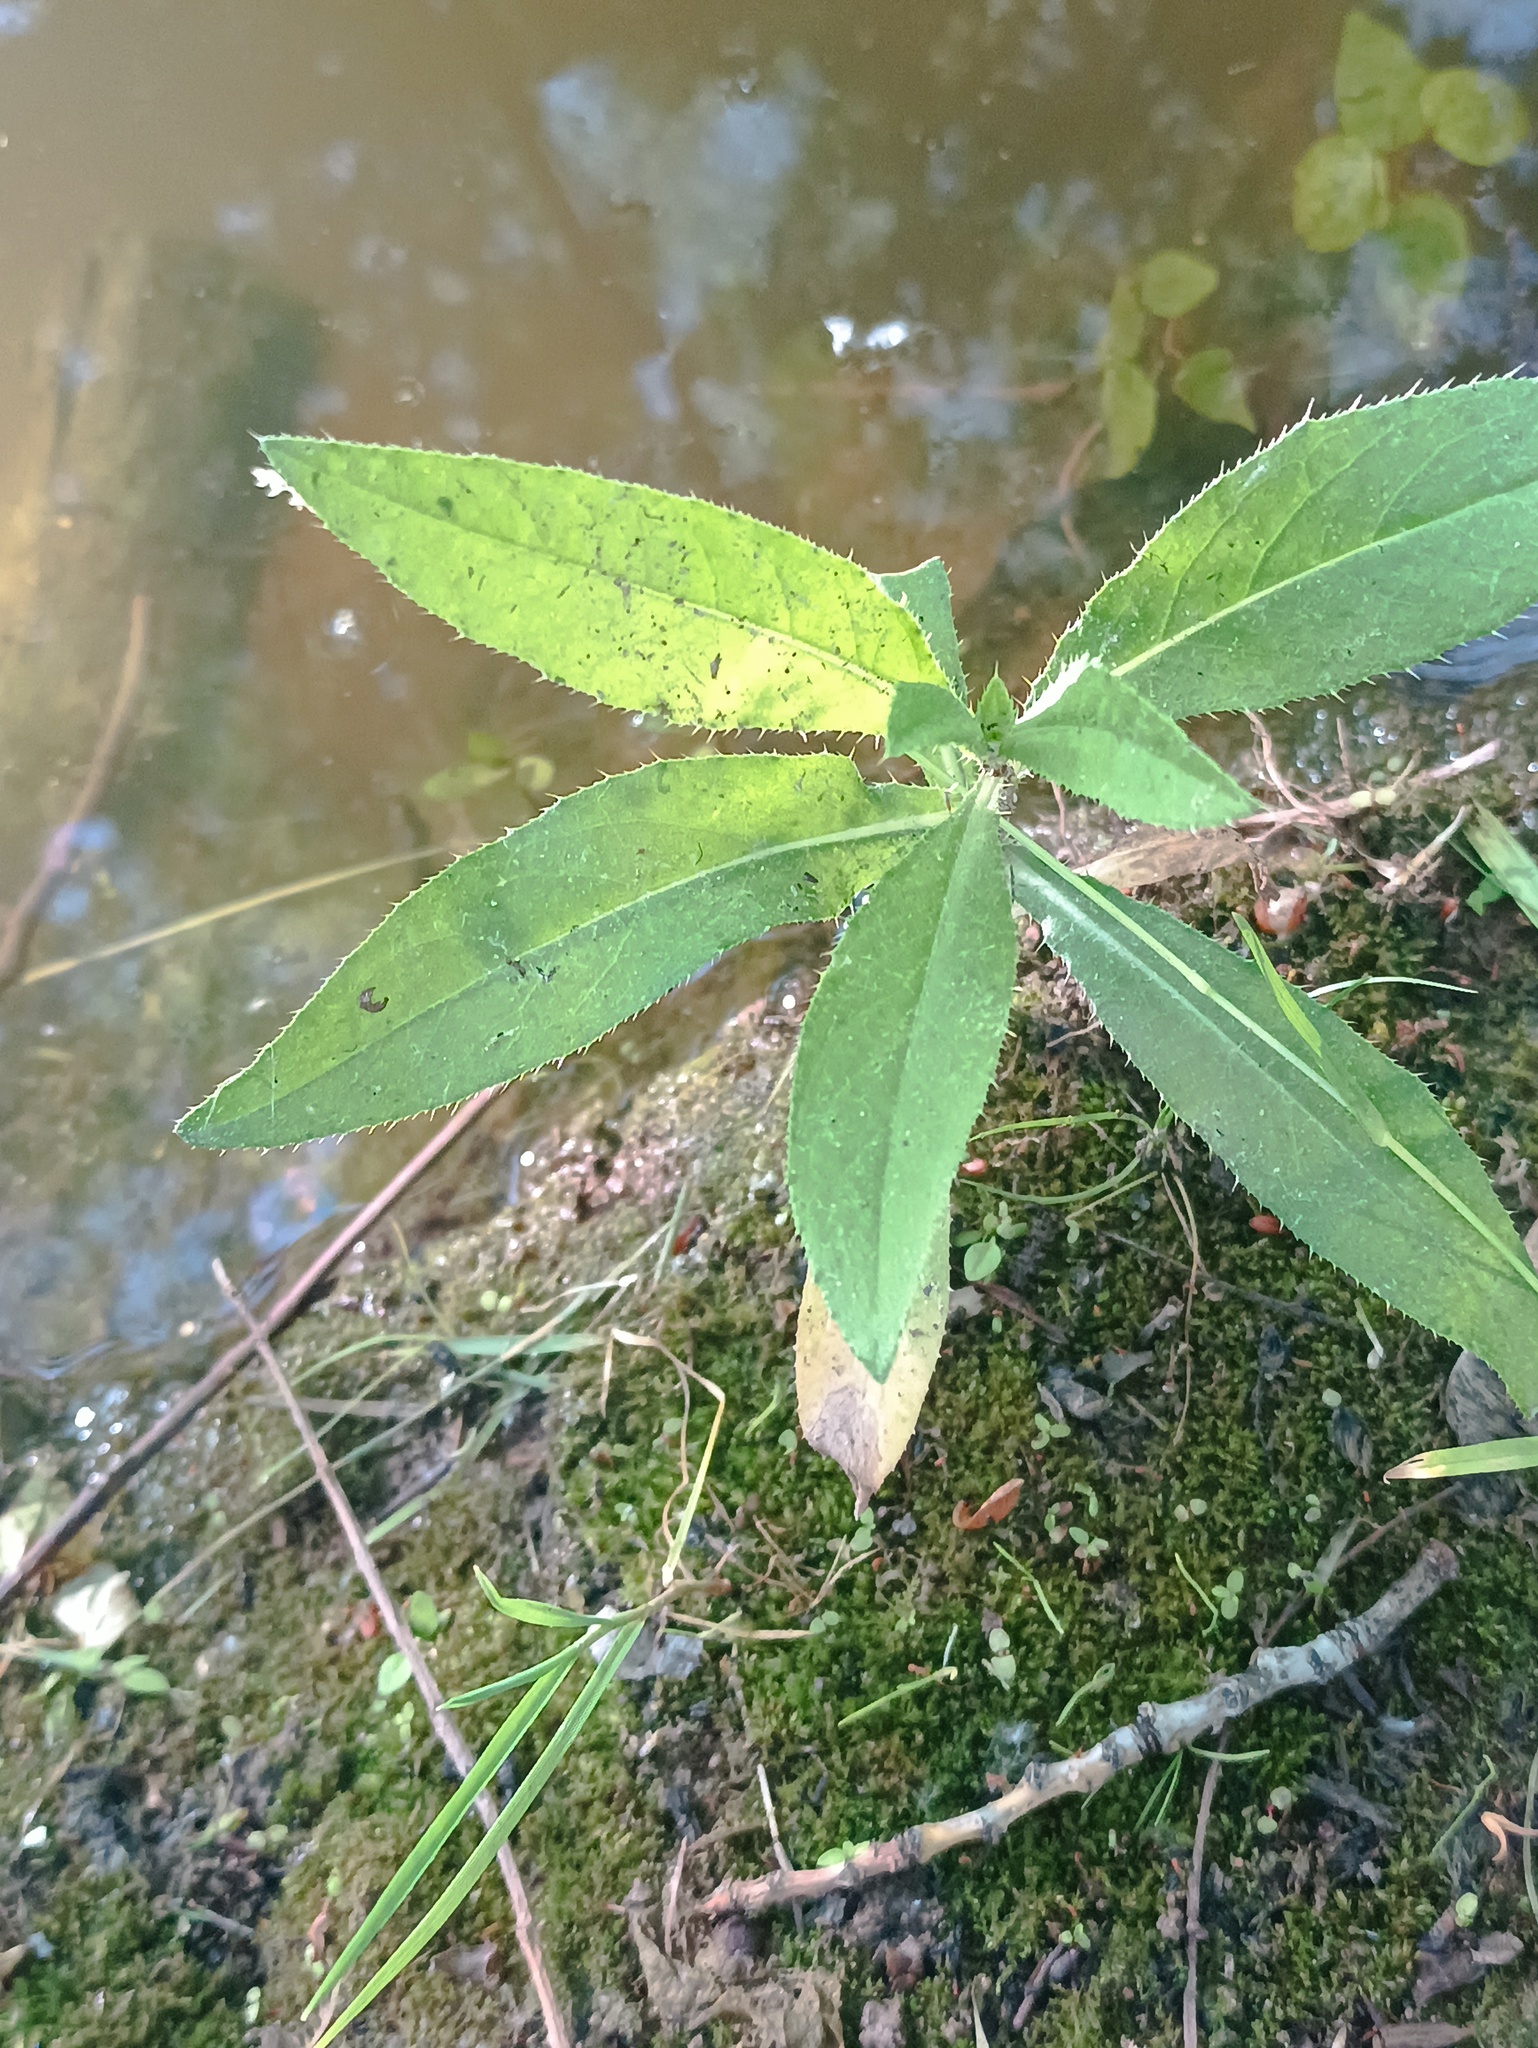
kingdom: Plantae
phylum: Tracheophyta
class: Magnoliopsida
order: Asterales
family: Asteraceae
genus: Cirsium
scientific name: Cirsium arvense
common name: Creeping thistle
